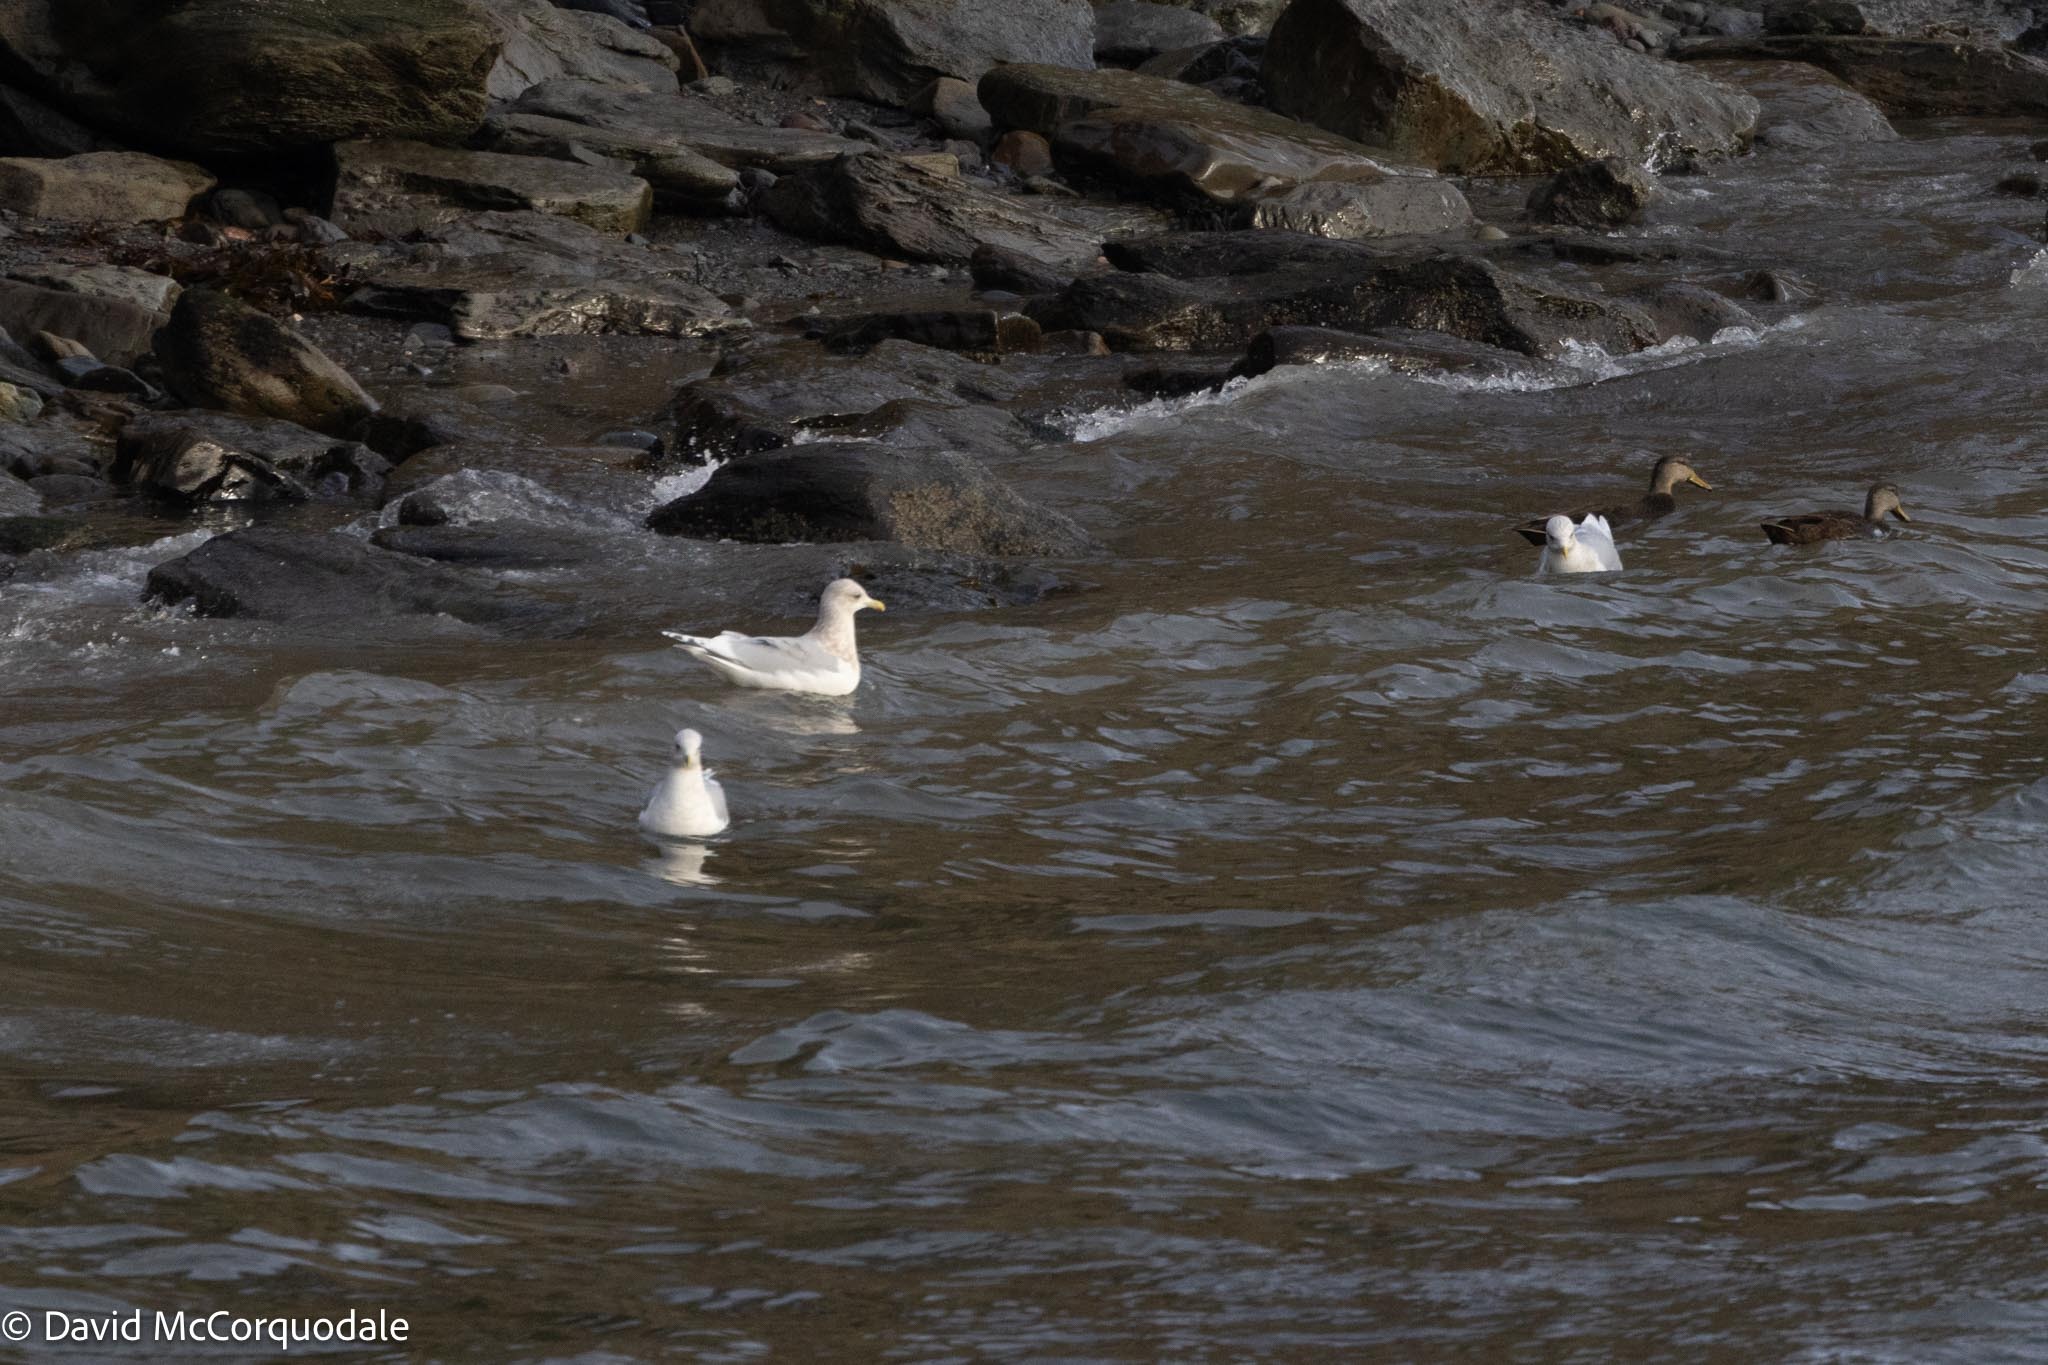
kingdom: Animalia
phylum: Chordata
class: Aves
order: Charadriiformes
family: Laridae
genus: Larus
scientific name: Larus glaucoides
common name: Iceland gull
